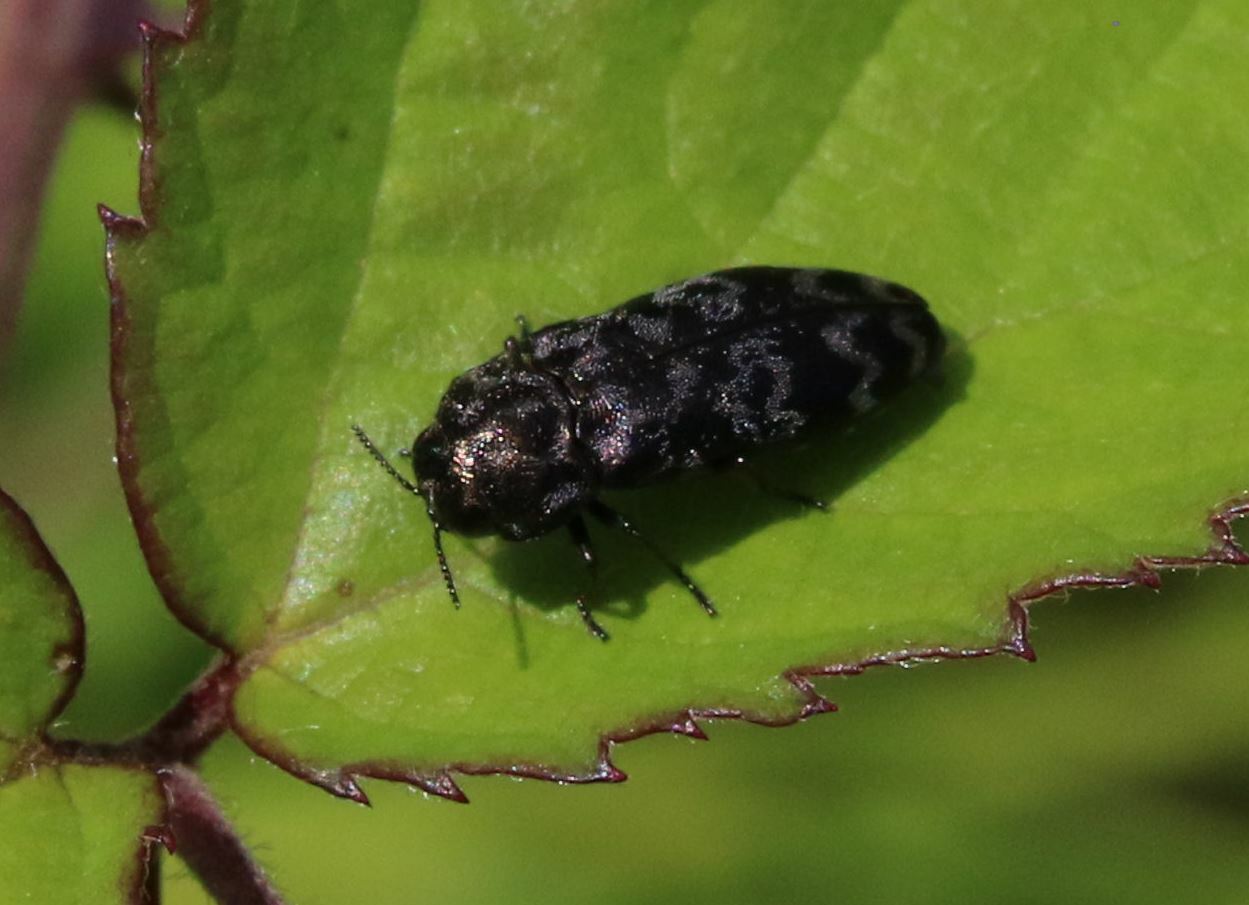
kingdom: Animalia
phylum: Arthropoda
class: Insecta
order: Coleoptera
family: Buprestidae
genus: Coraebus
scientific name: Coraebus rubi
